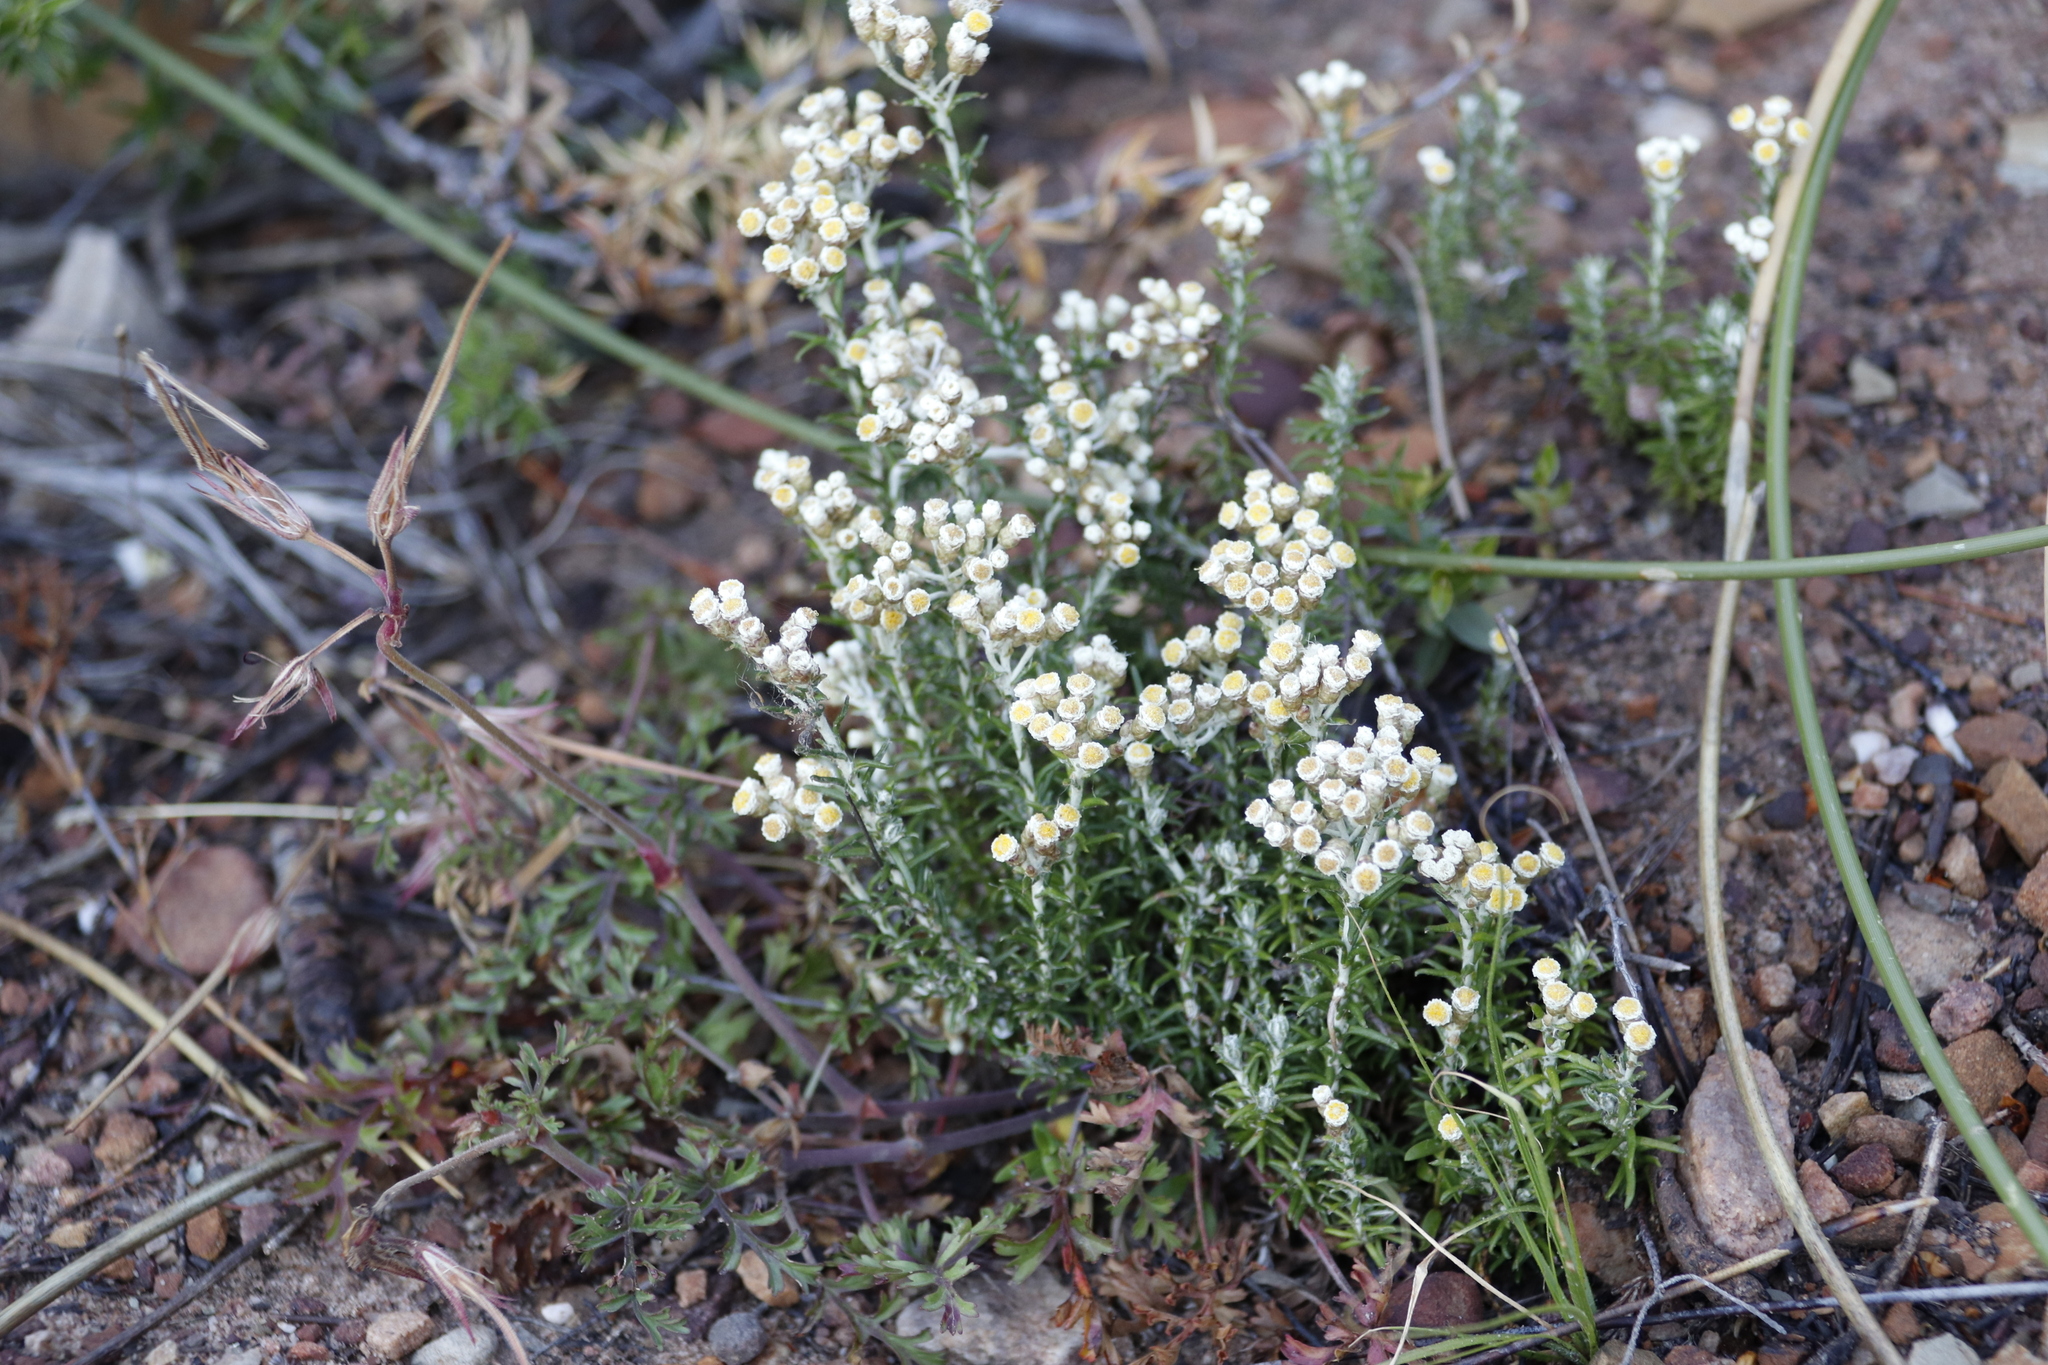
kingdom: Plantae
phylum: Tracheophyta
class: Magnoliopsida
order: Asterales
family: Asteraceae
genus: Helichrysum
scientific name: Helichrysum teretifolium
